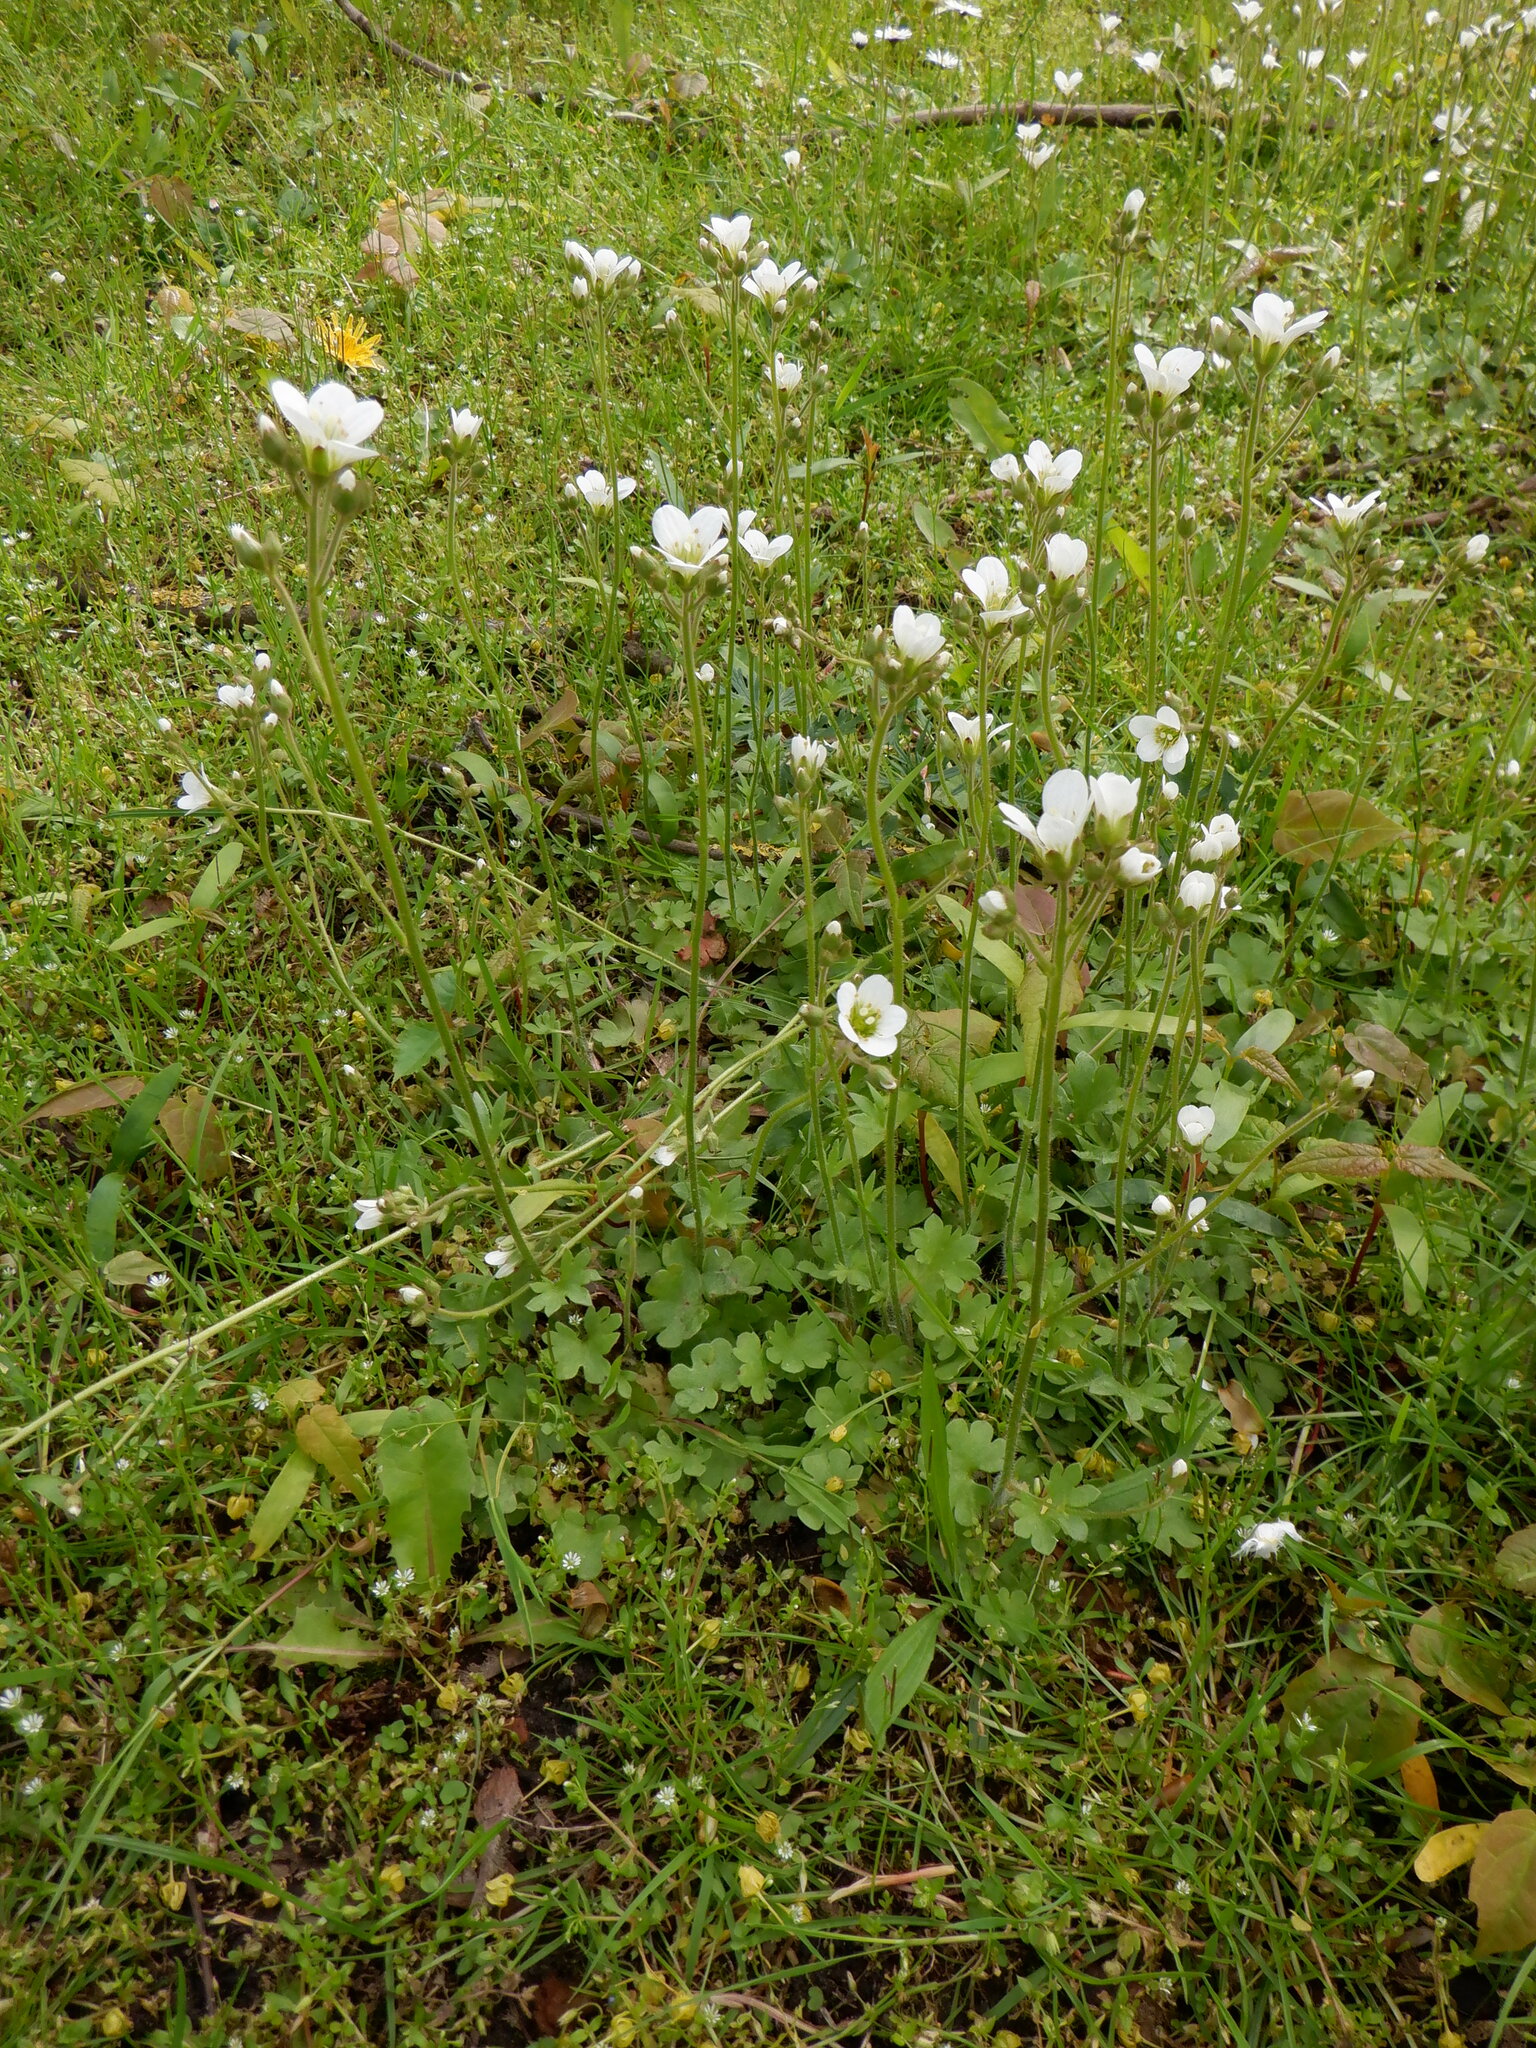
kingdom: Plantae
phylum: Tracheophyta
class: Magnoliopsida
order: Saxifragales
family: Saxifragaceae
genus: Saxifraga
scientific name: Saxifraga granulata
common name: Meadow saxifrage
